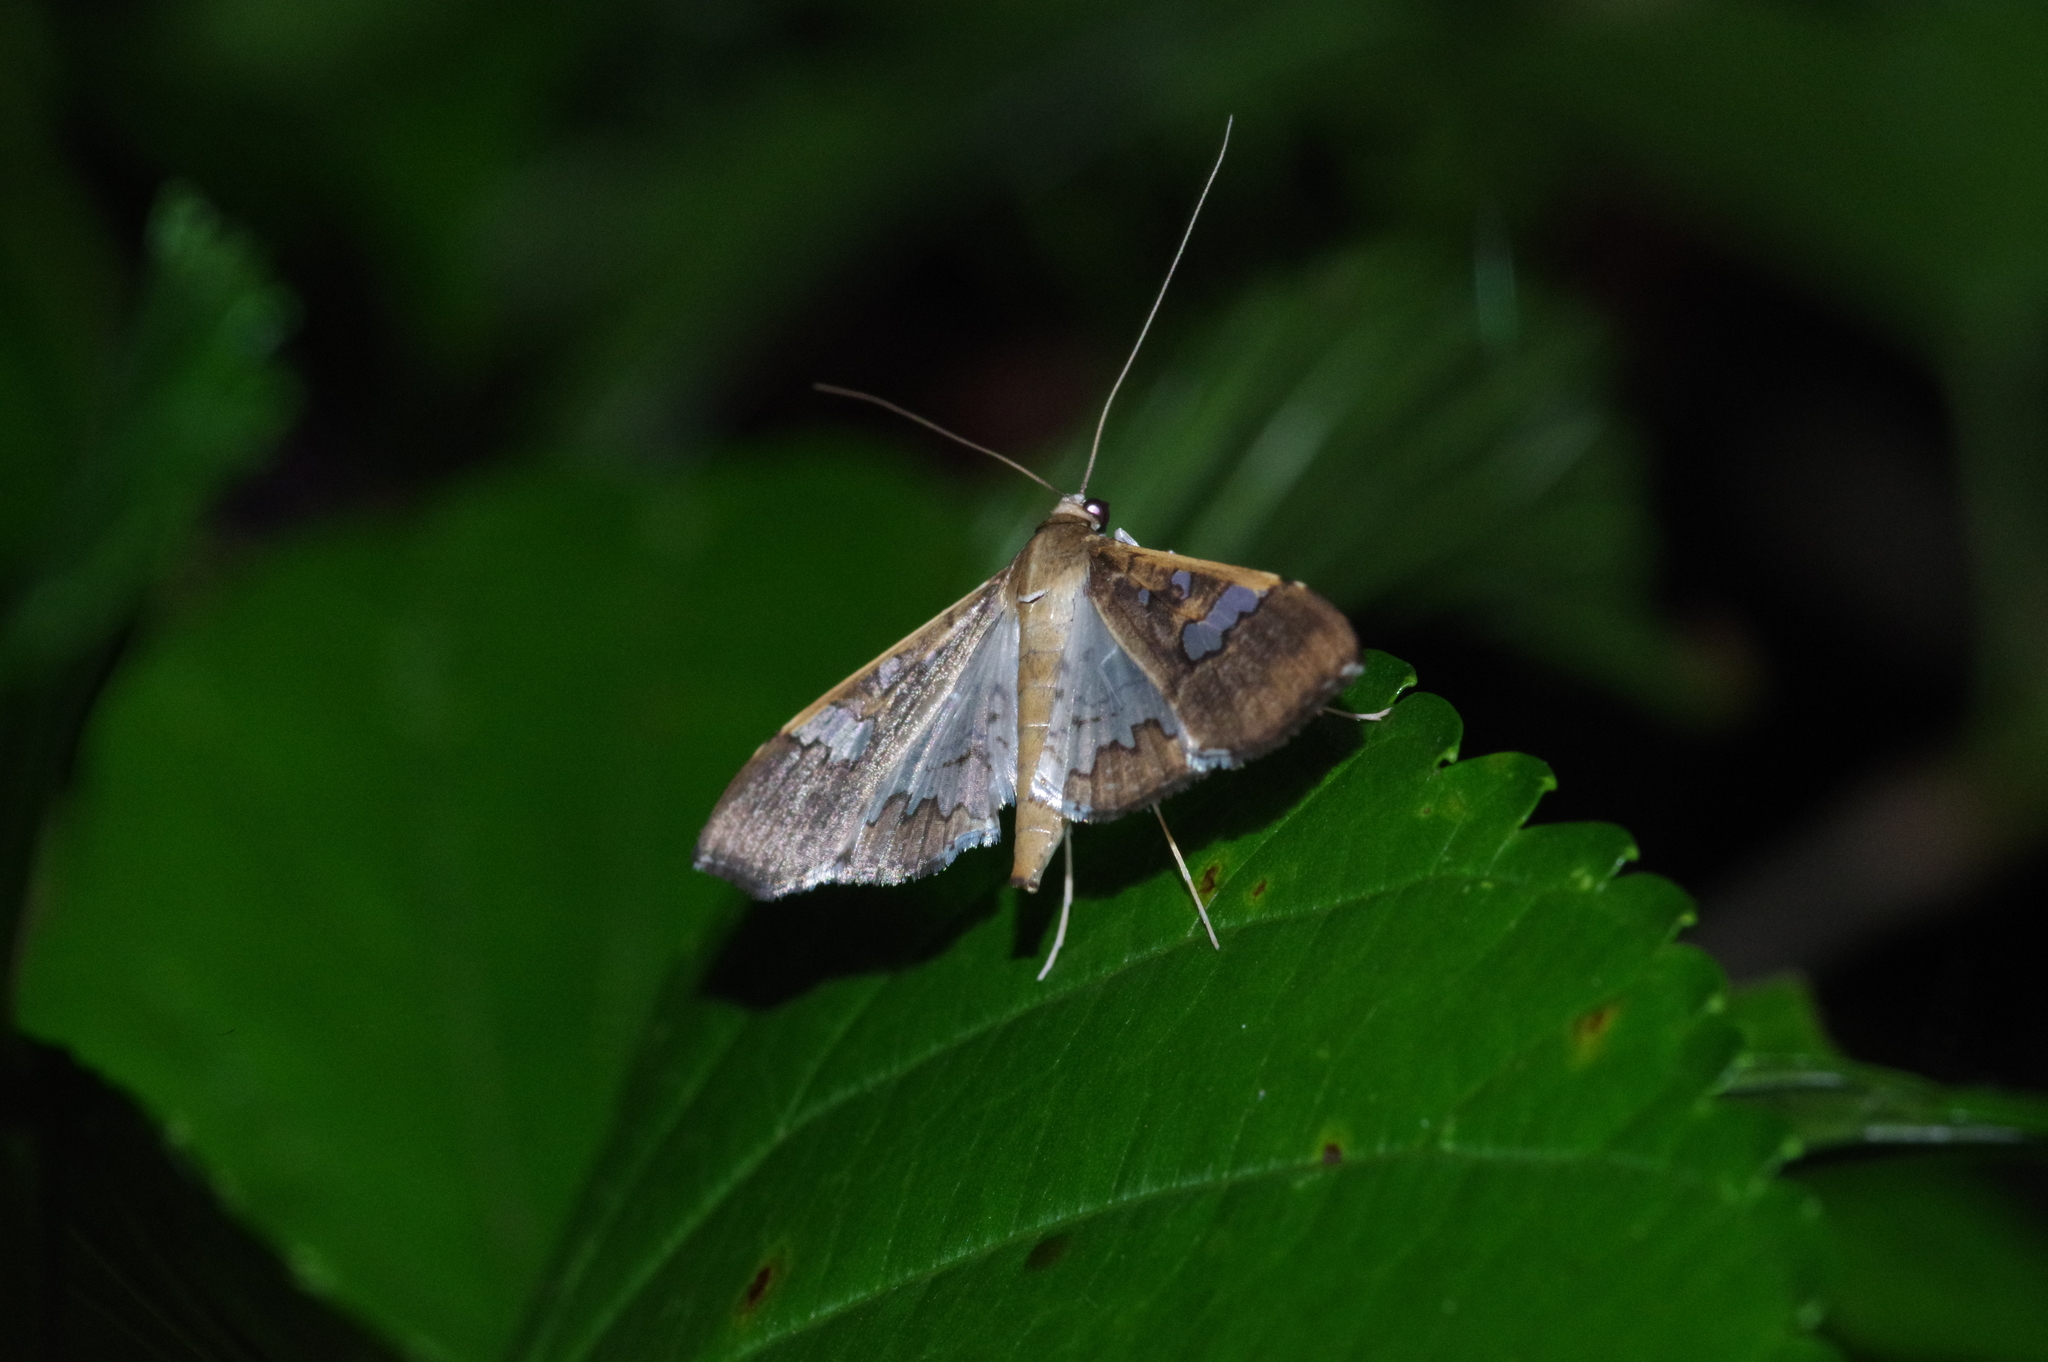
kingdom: Animalia
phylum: Arthropoda
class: Insecta
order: Lepidoptera
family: Crambidae
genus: Maruca
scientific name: Maruca vitrata
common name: Maruca pod borer
